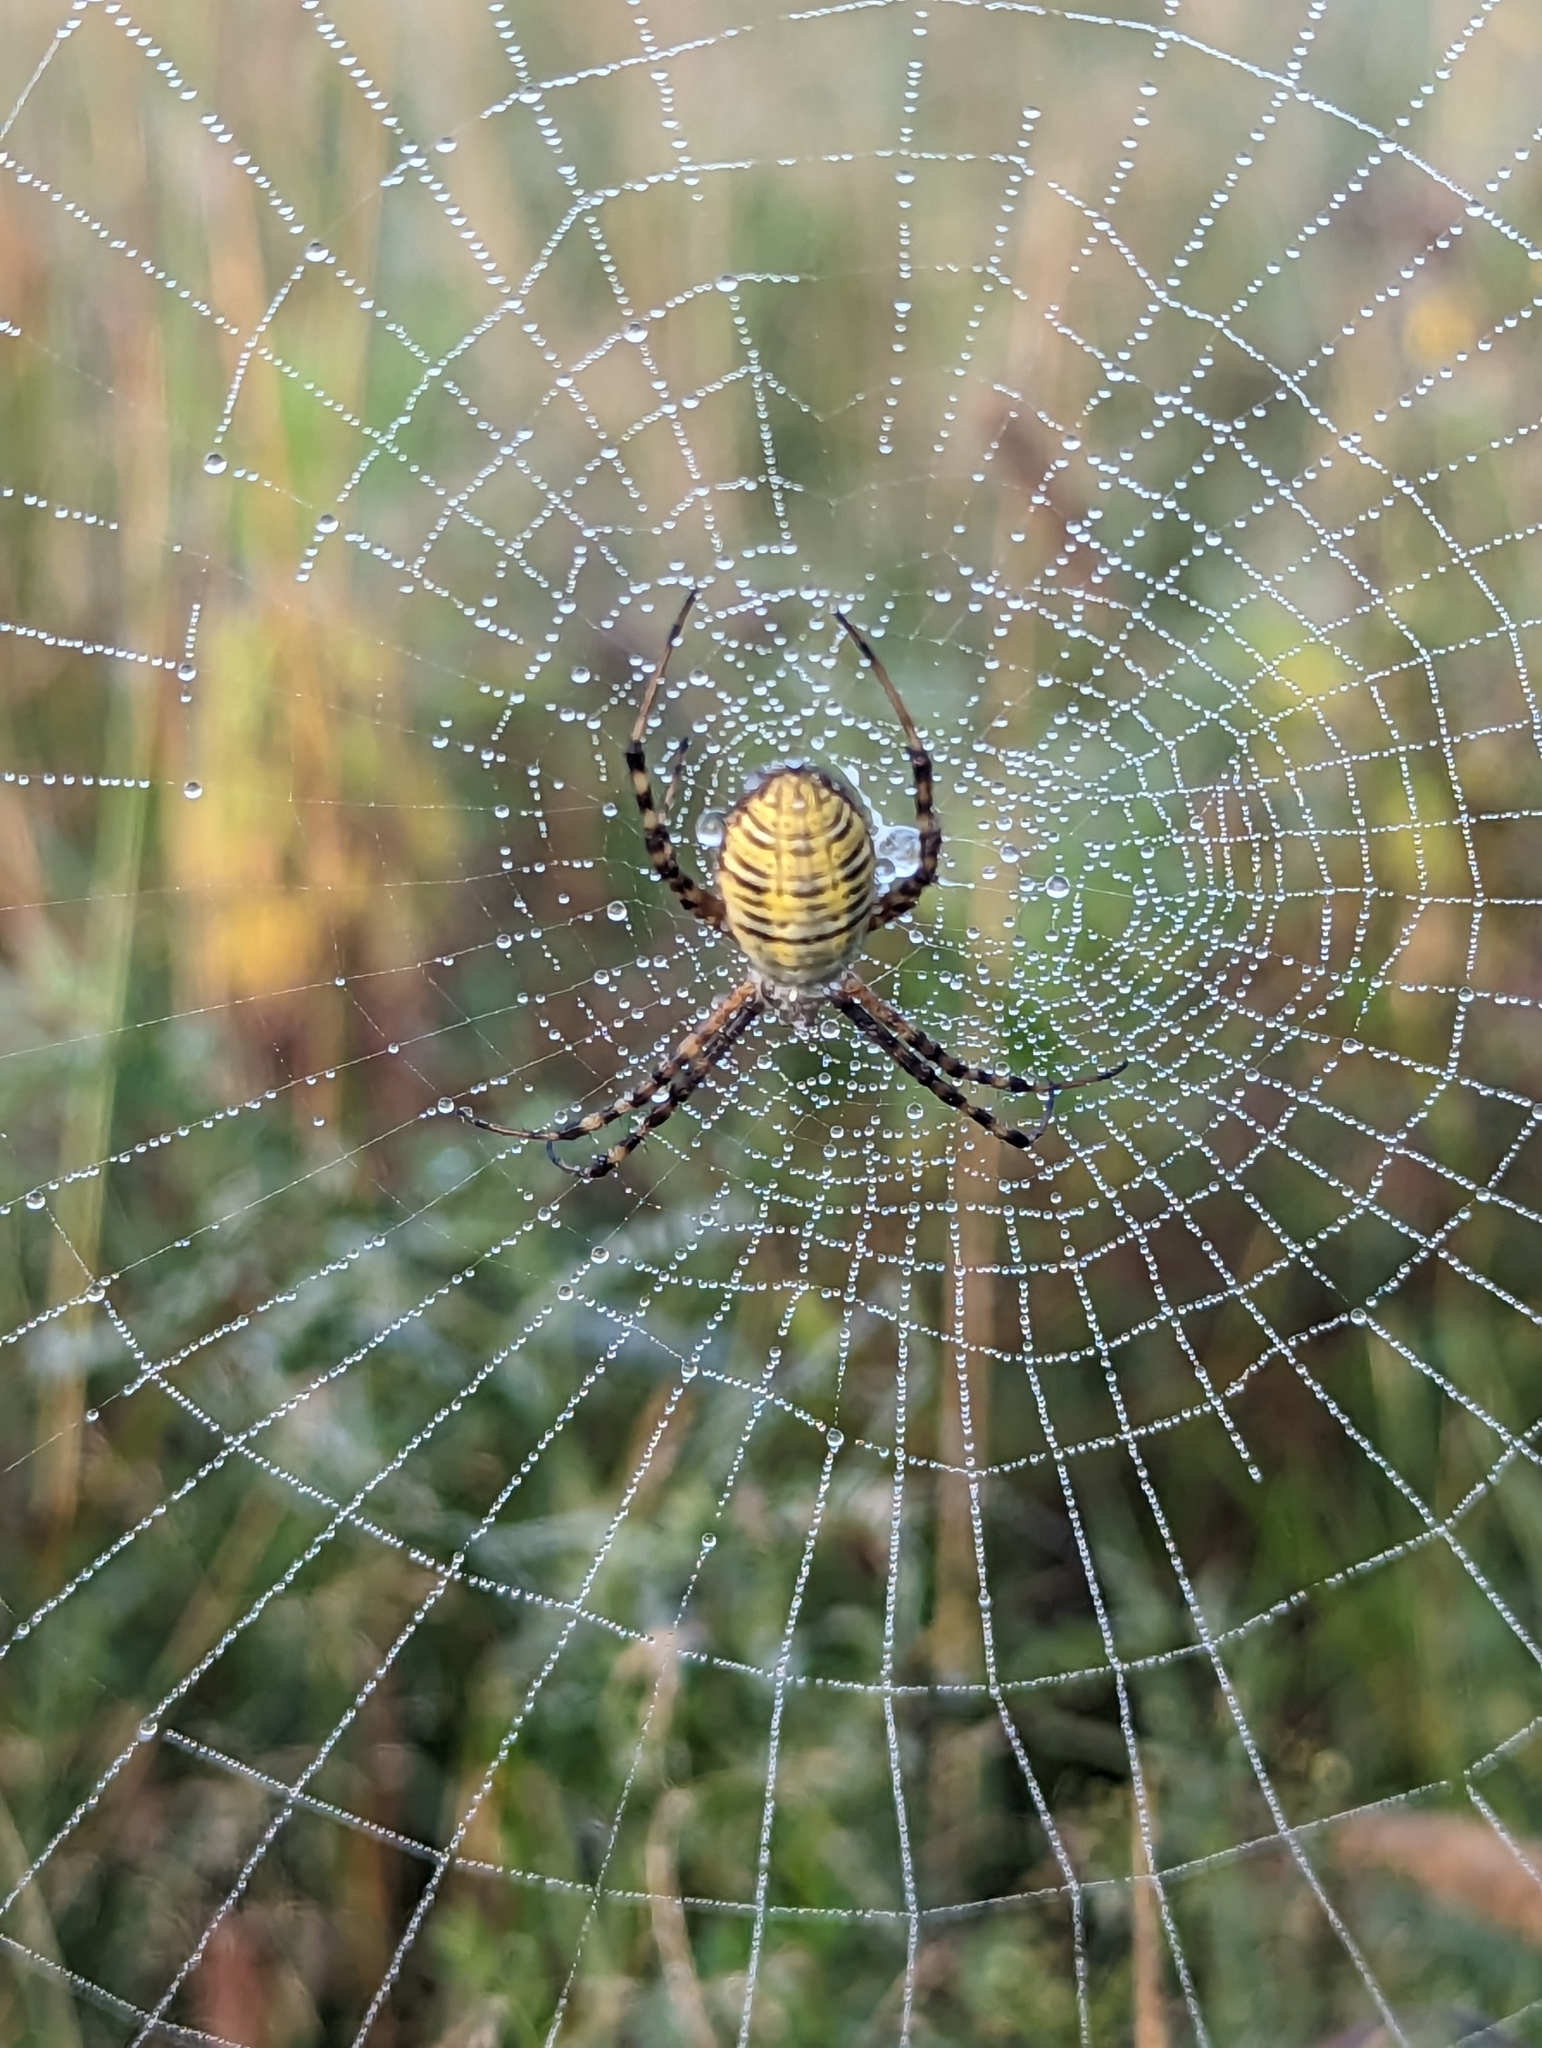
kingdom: Animalia
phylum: Arthropoda
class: Arachnida
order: Araneae
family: Araneidae
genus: Argiope
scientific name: Argiope trifasciata
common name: Banded garden spider
